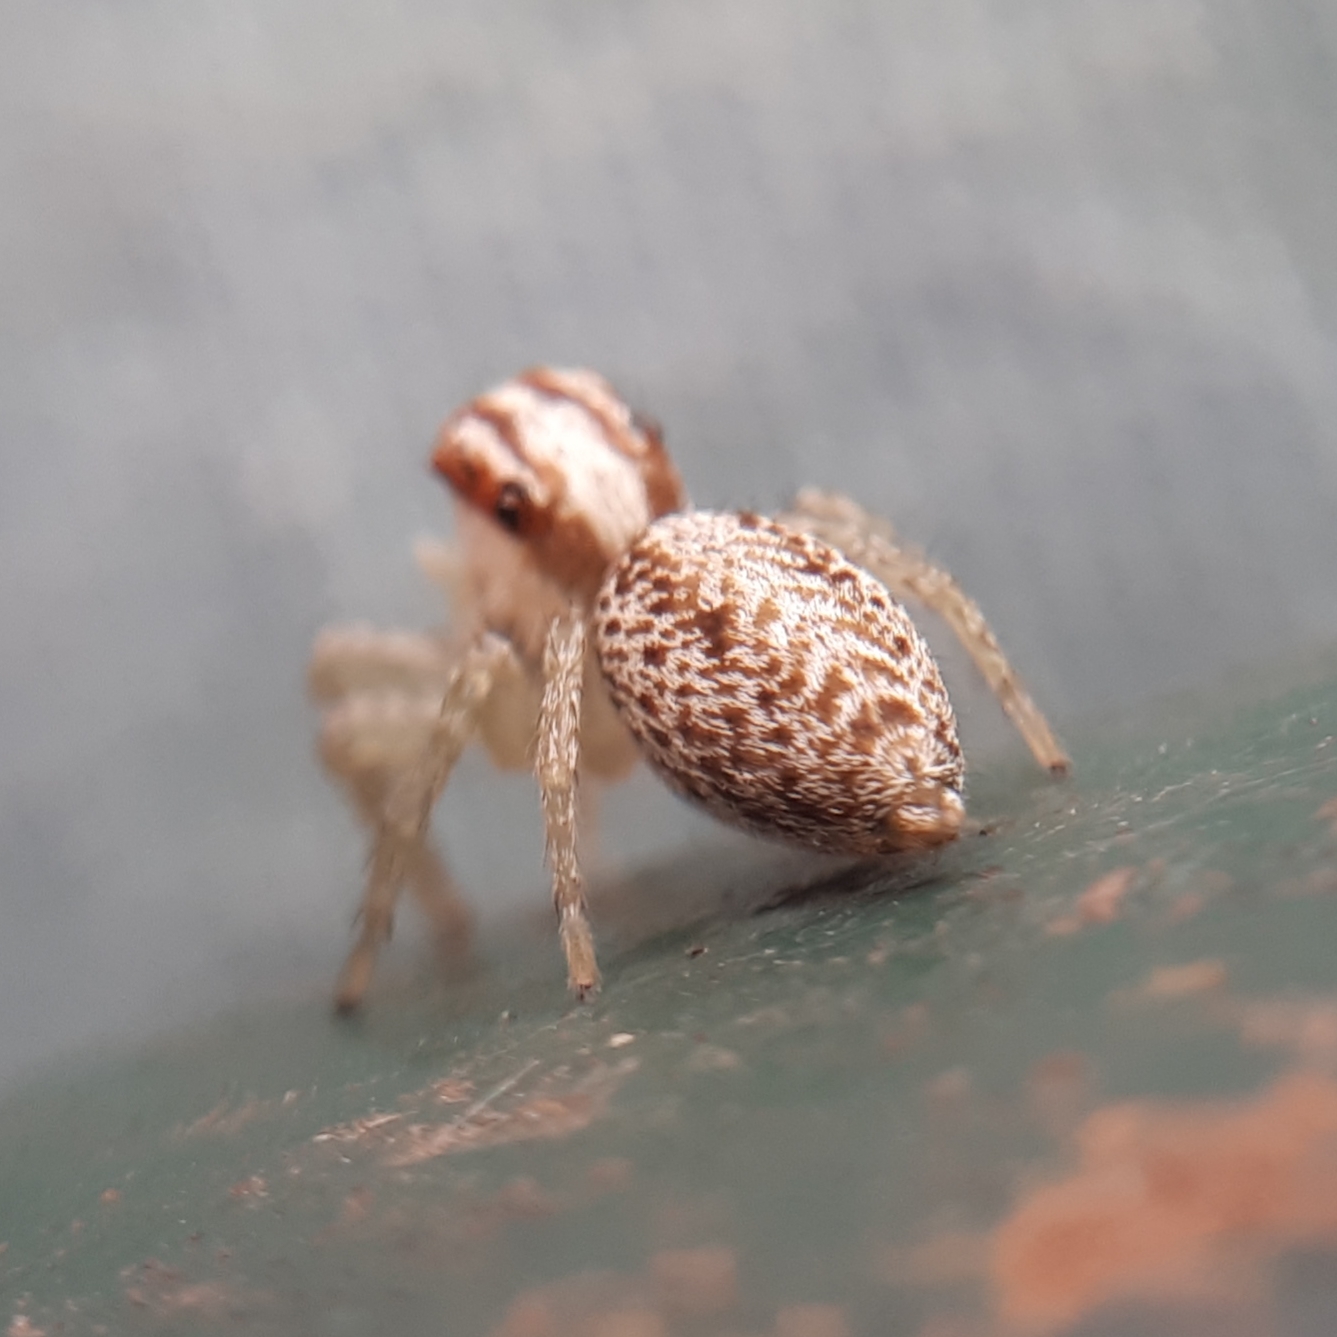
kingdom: Animalia
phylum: Arthropoda
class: Arachnida
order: Araneae
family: Salticidae
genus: Chira
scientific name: Chira lucina
